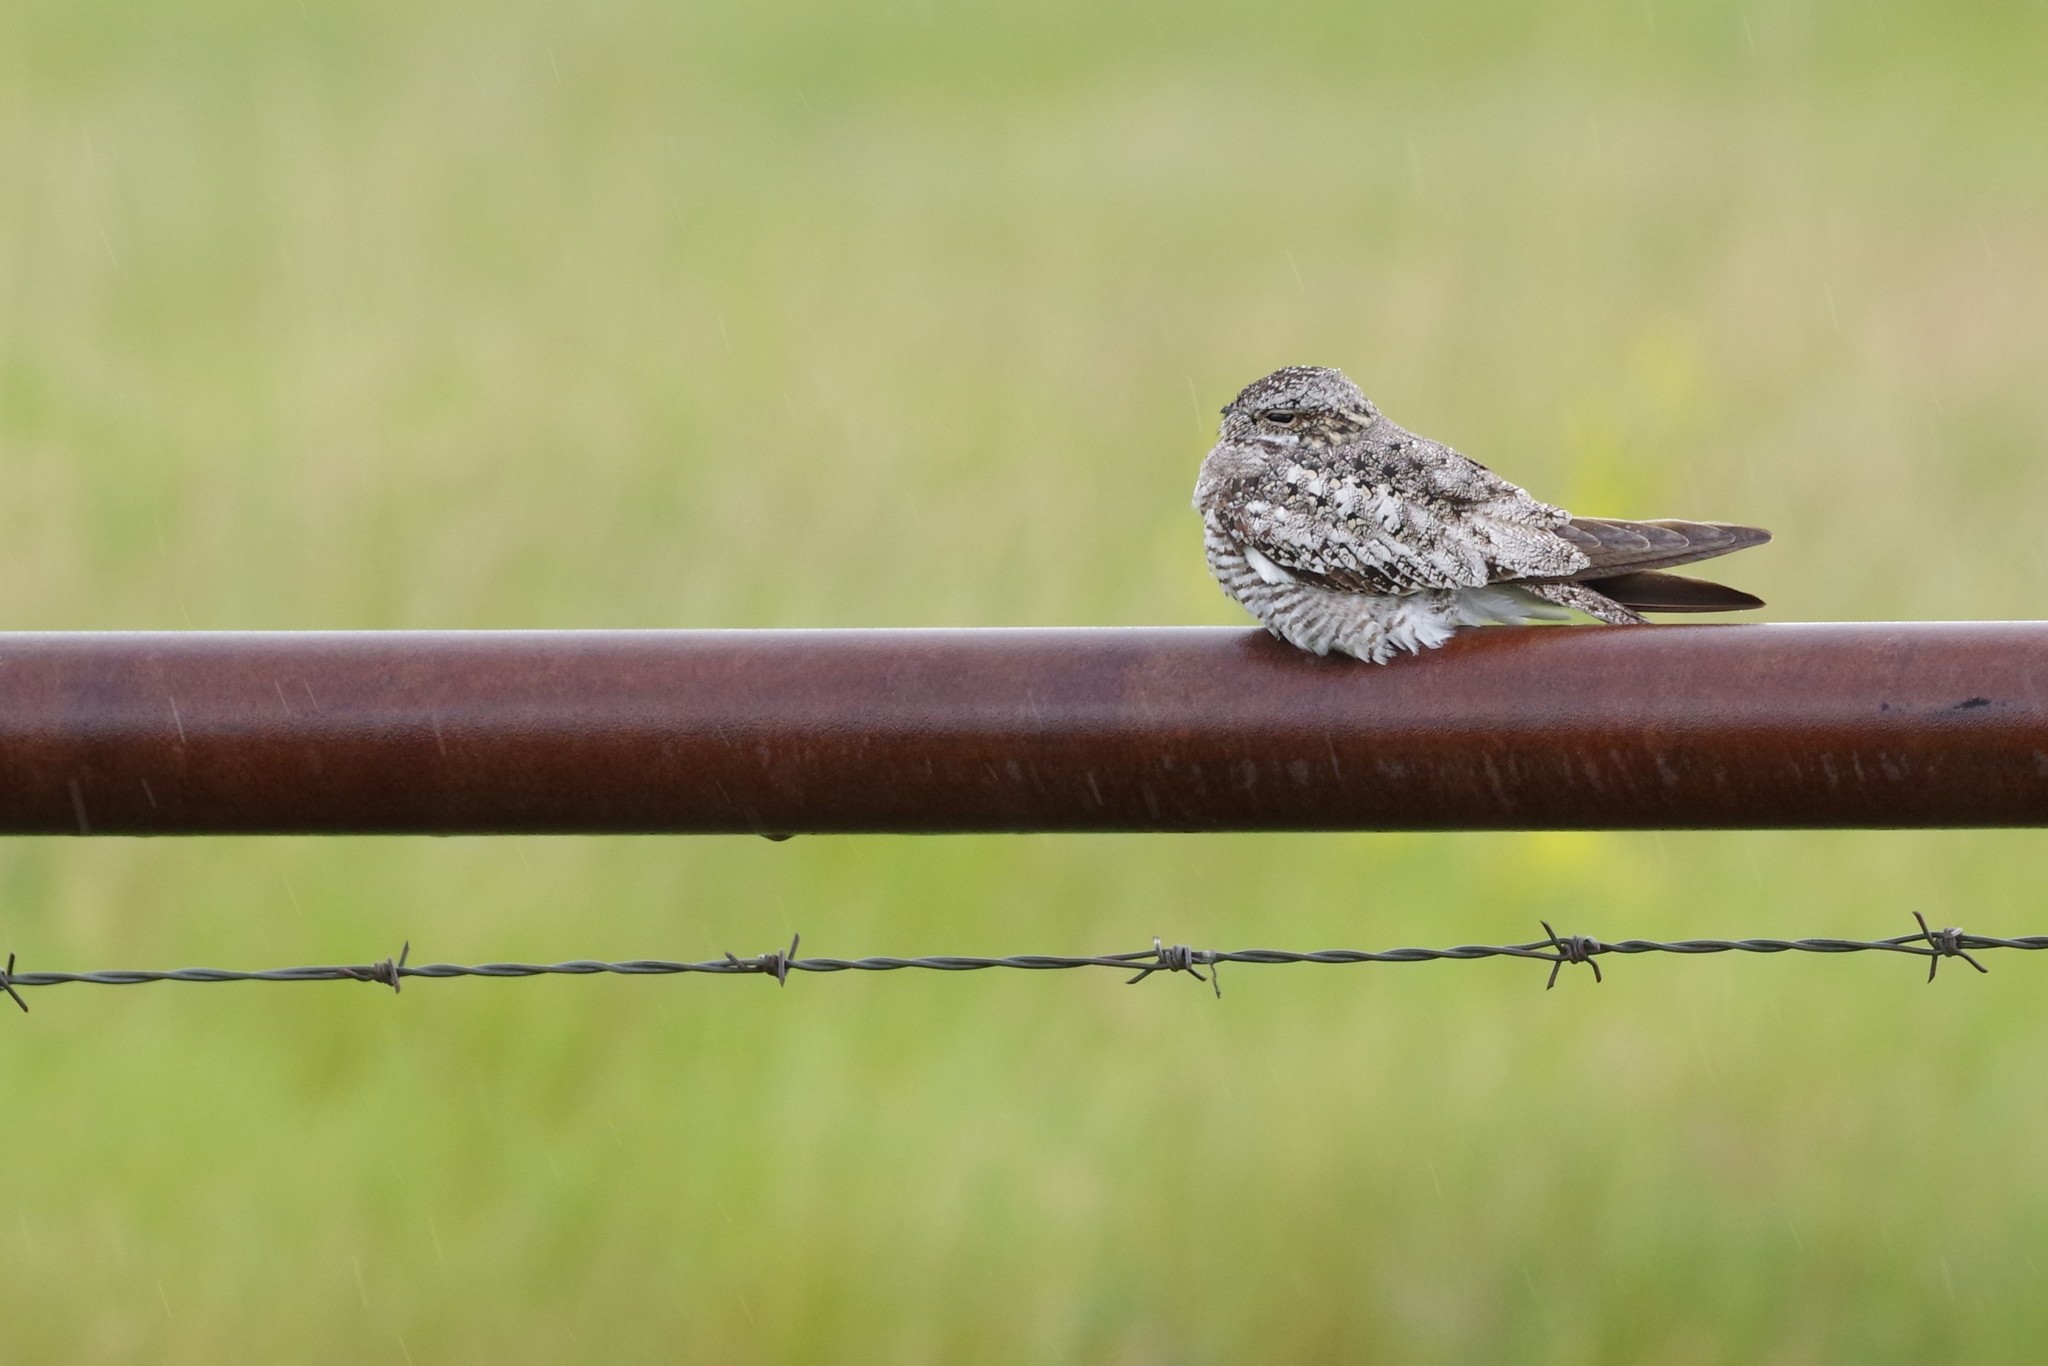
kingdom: Animalia
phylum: Chordata
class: Aves
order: Caprimulgiformes
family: Caprimulgidae
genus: Chordeiles
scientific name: Chordeiles minor
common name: Common nighthawk
